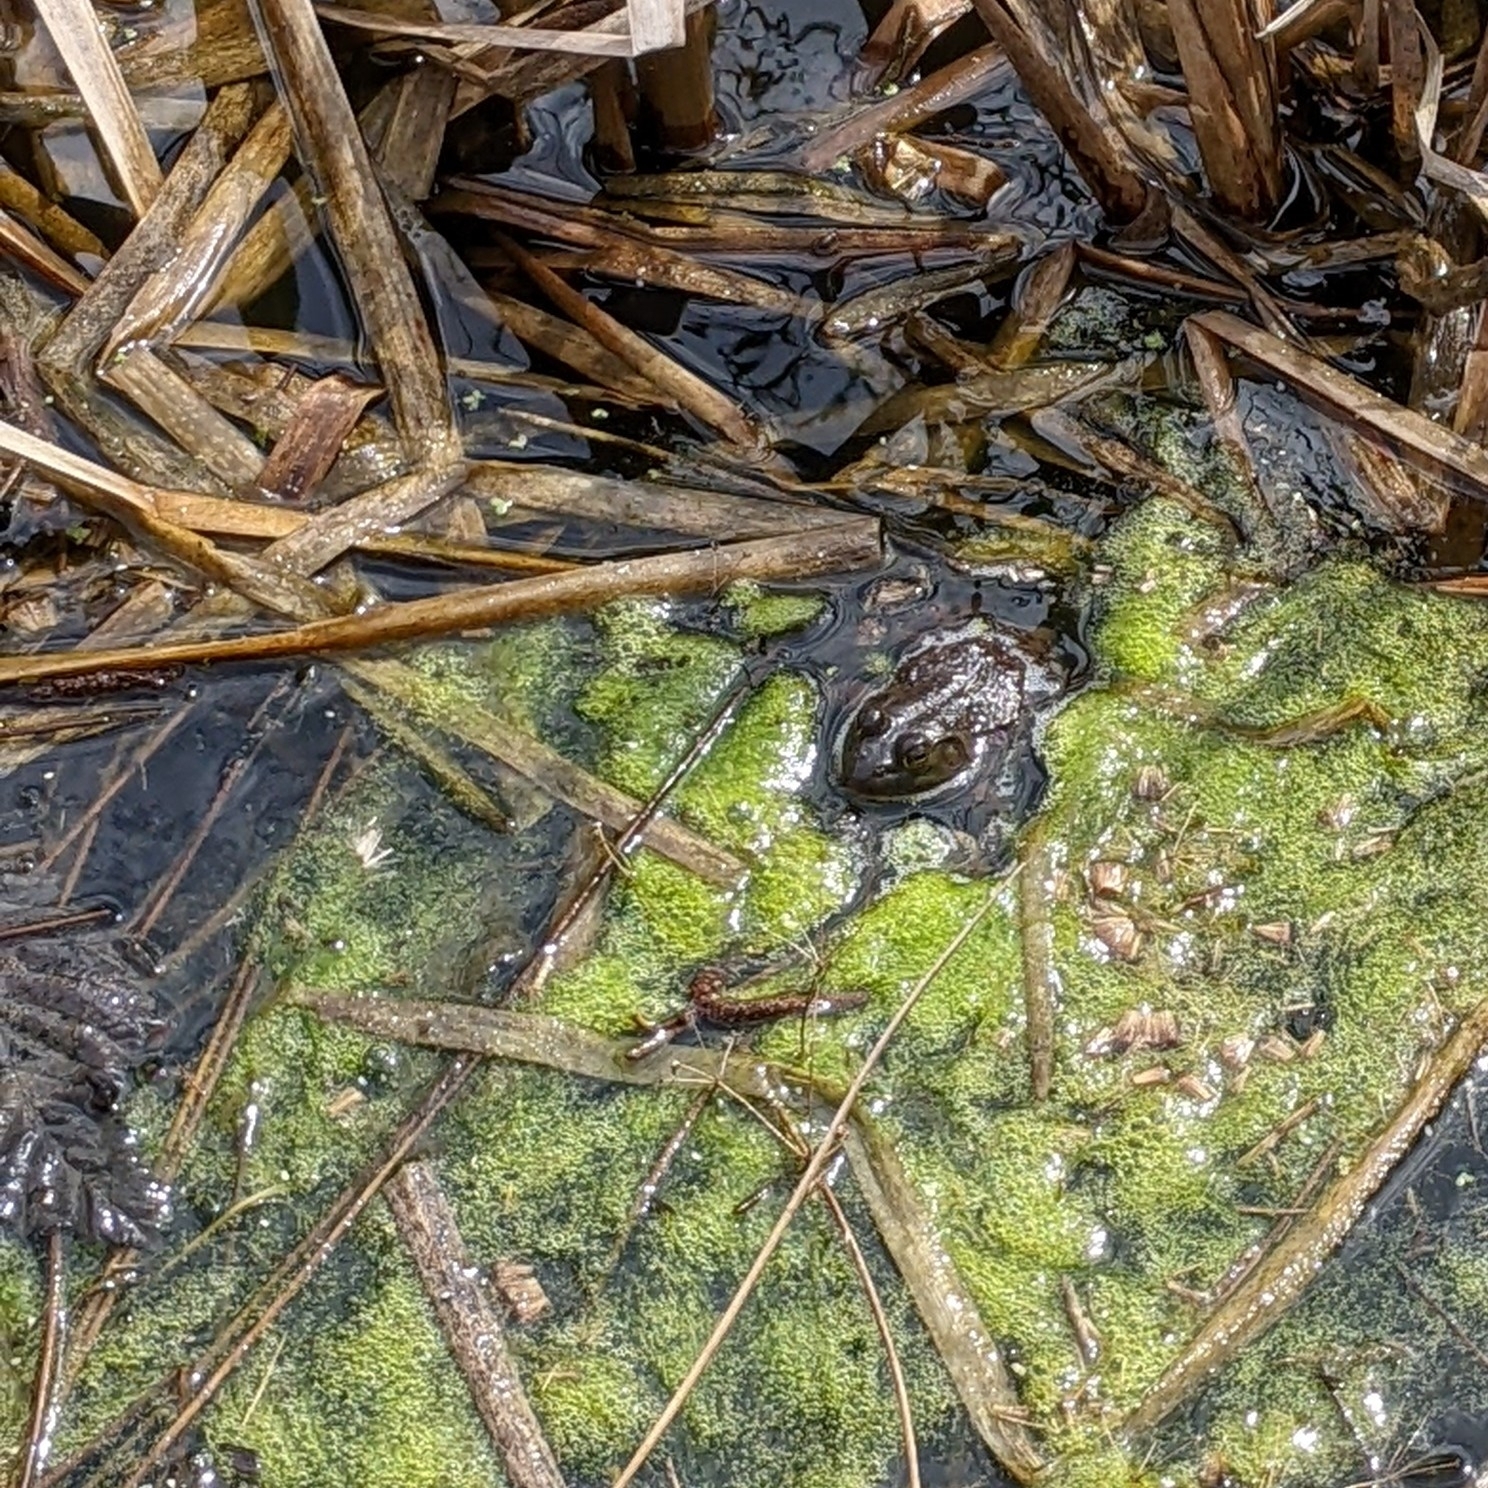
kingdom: Animalia
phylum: Chordata
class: Amphibia
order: Anura
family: Ranidae
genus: Lithobates
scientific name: Lithobates catesbeianus
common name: American bullfrog
